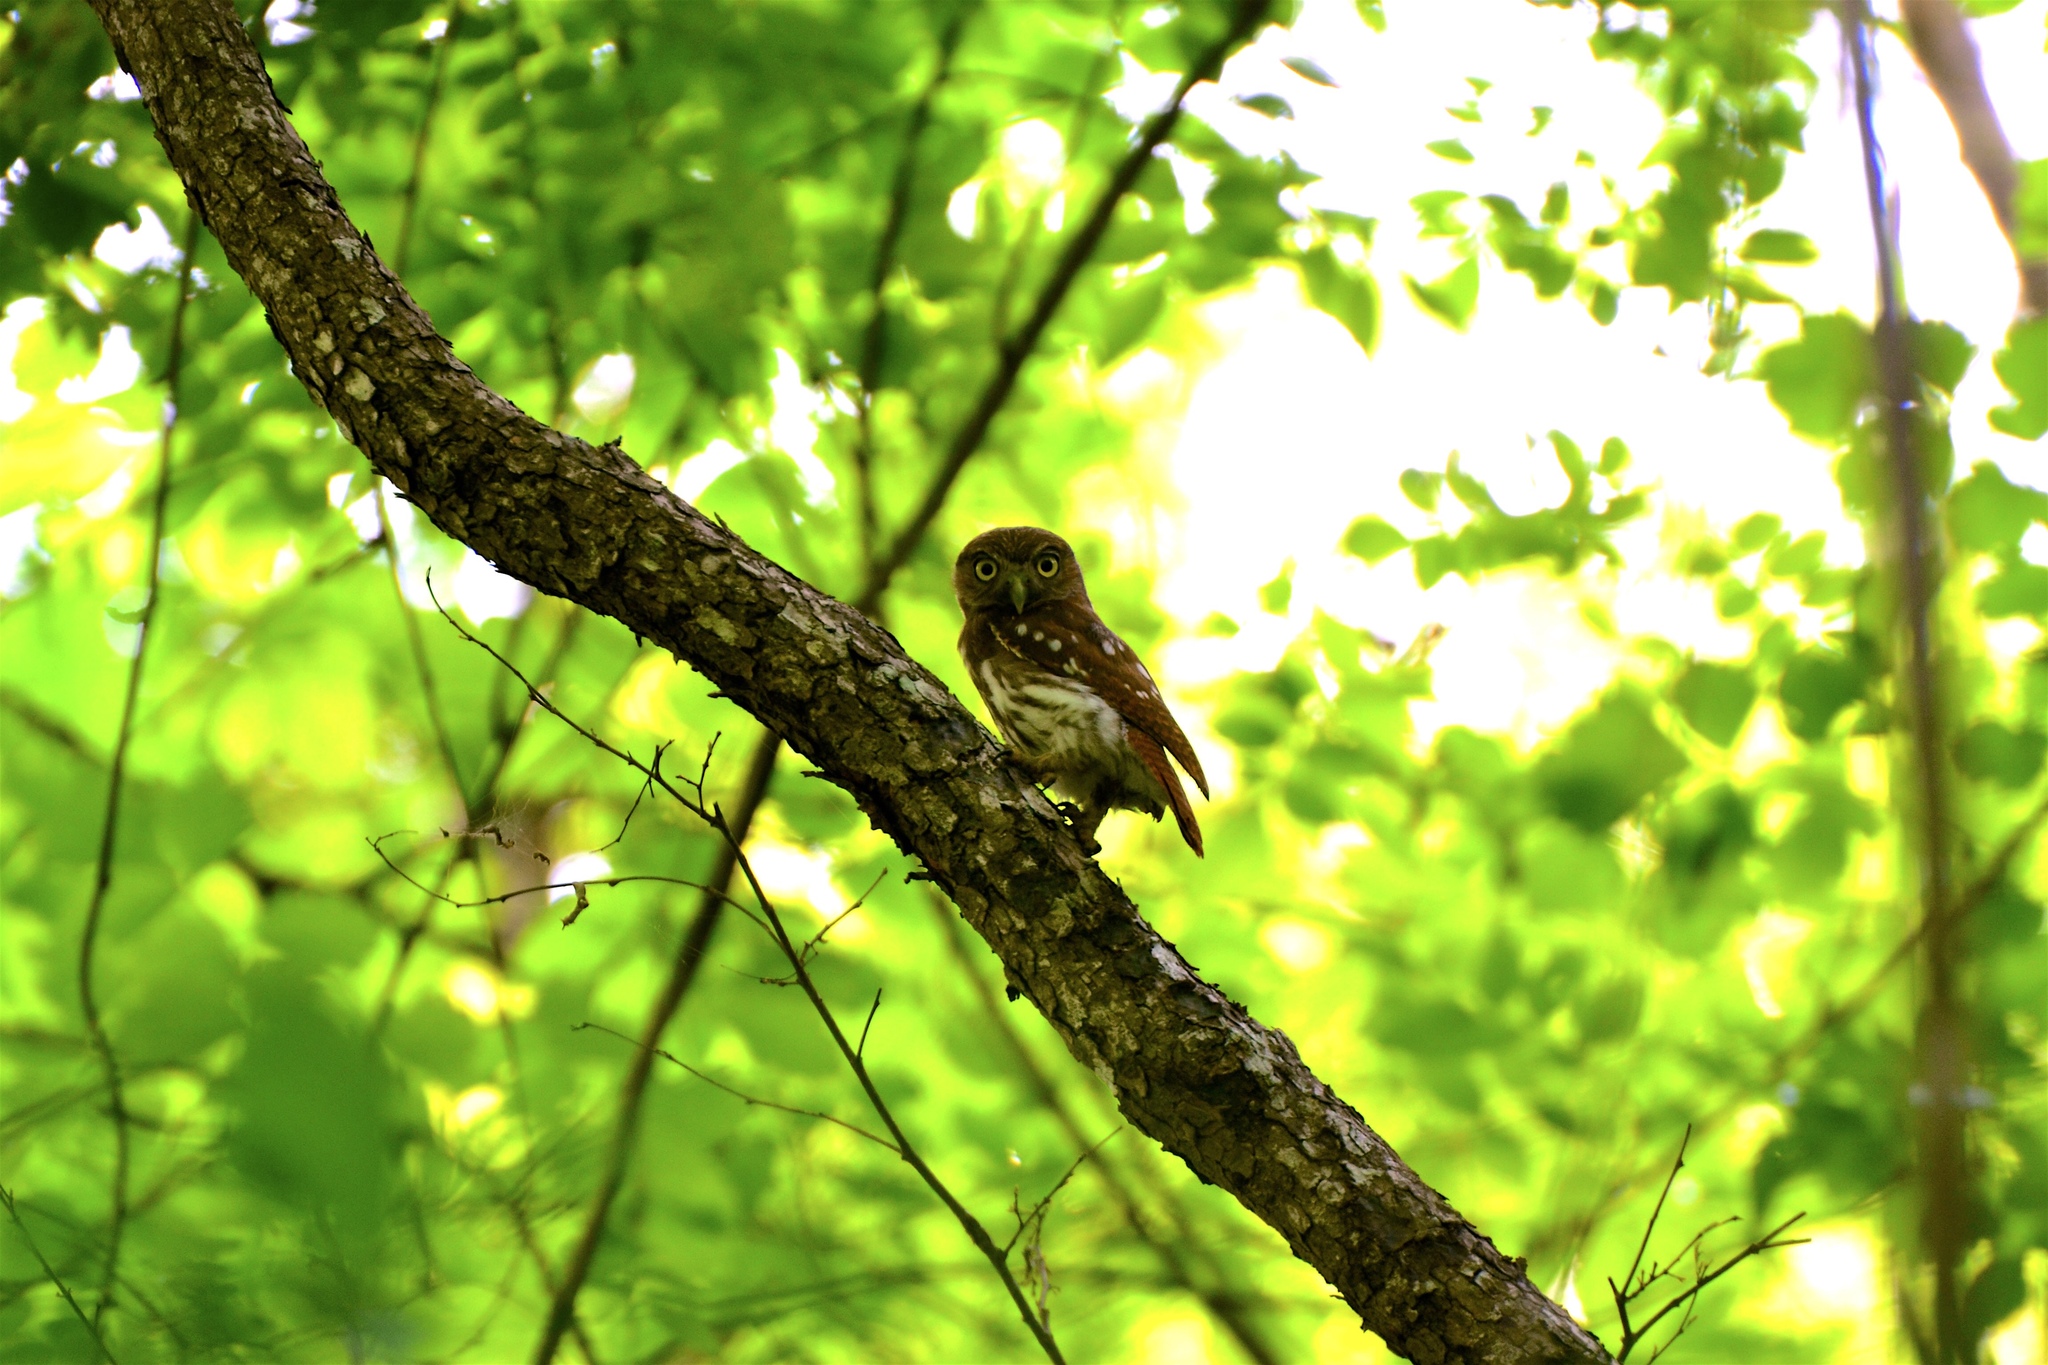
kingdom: Animalia
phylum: Chordata
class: Aves
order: Strigiformes
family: Strigidae
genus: Glaucidium
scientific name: Glaucidium brasilianum
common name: Ferruginous pygmy-owl
